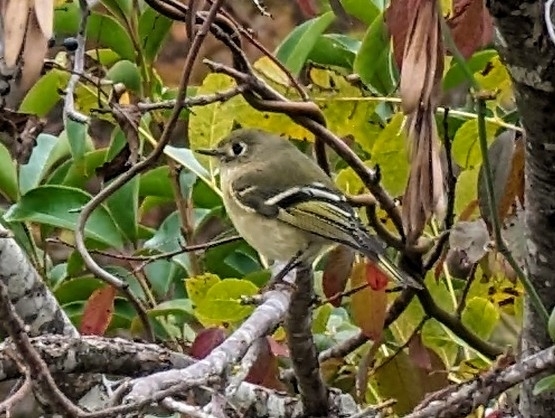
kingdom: Animalia
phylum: Chordata
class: Aves
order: Passeriformes
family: Regulidae
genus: Regulus
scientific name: Regulus calendula
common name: Ruby-crowned kinglet
